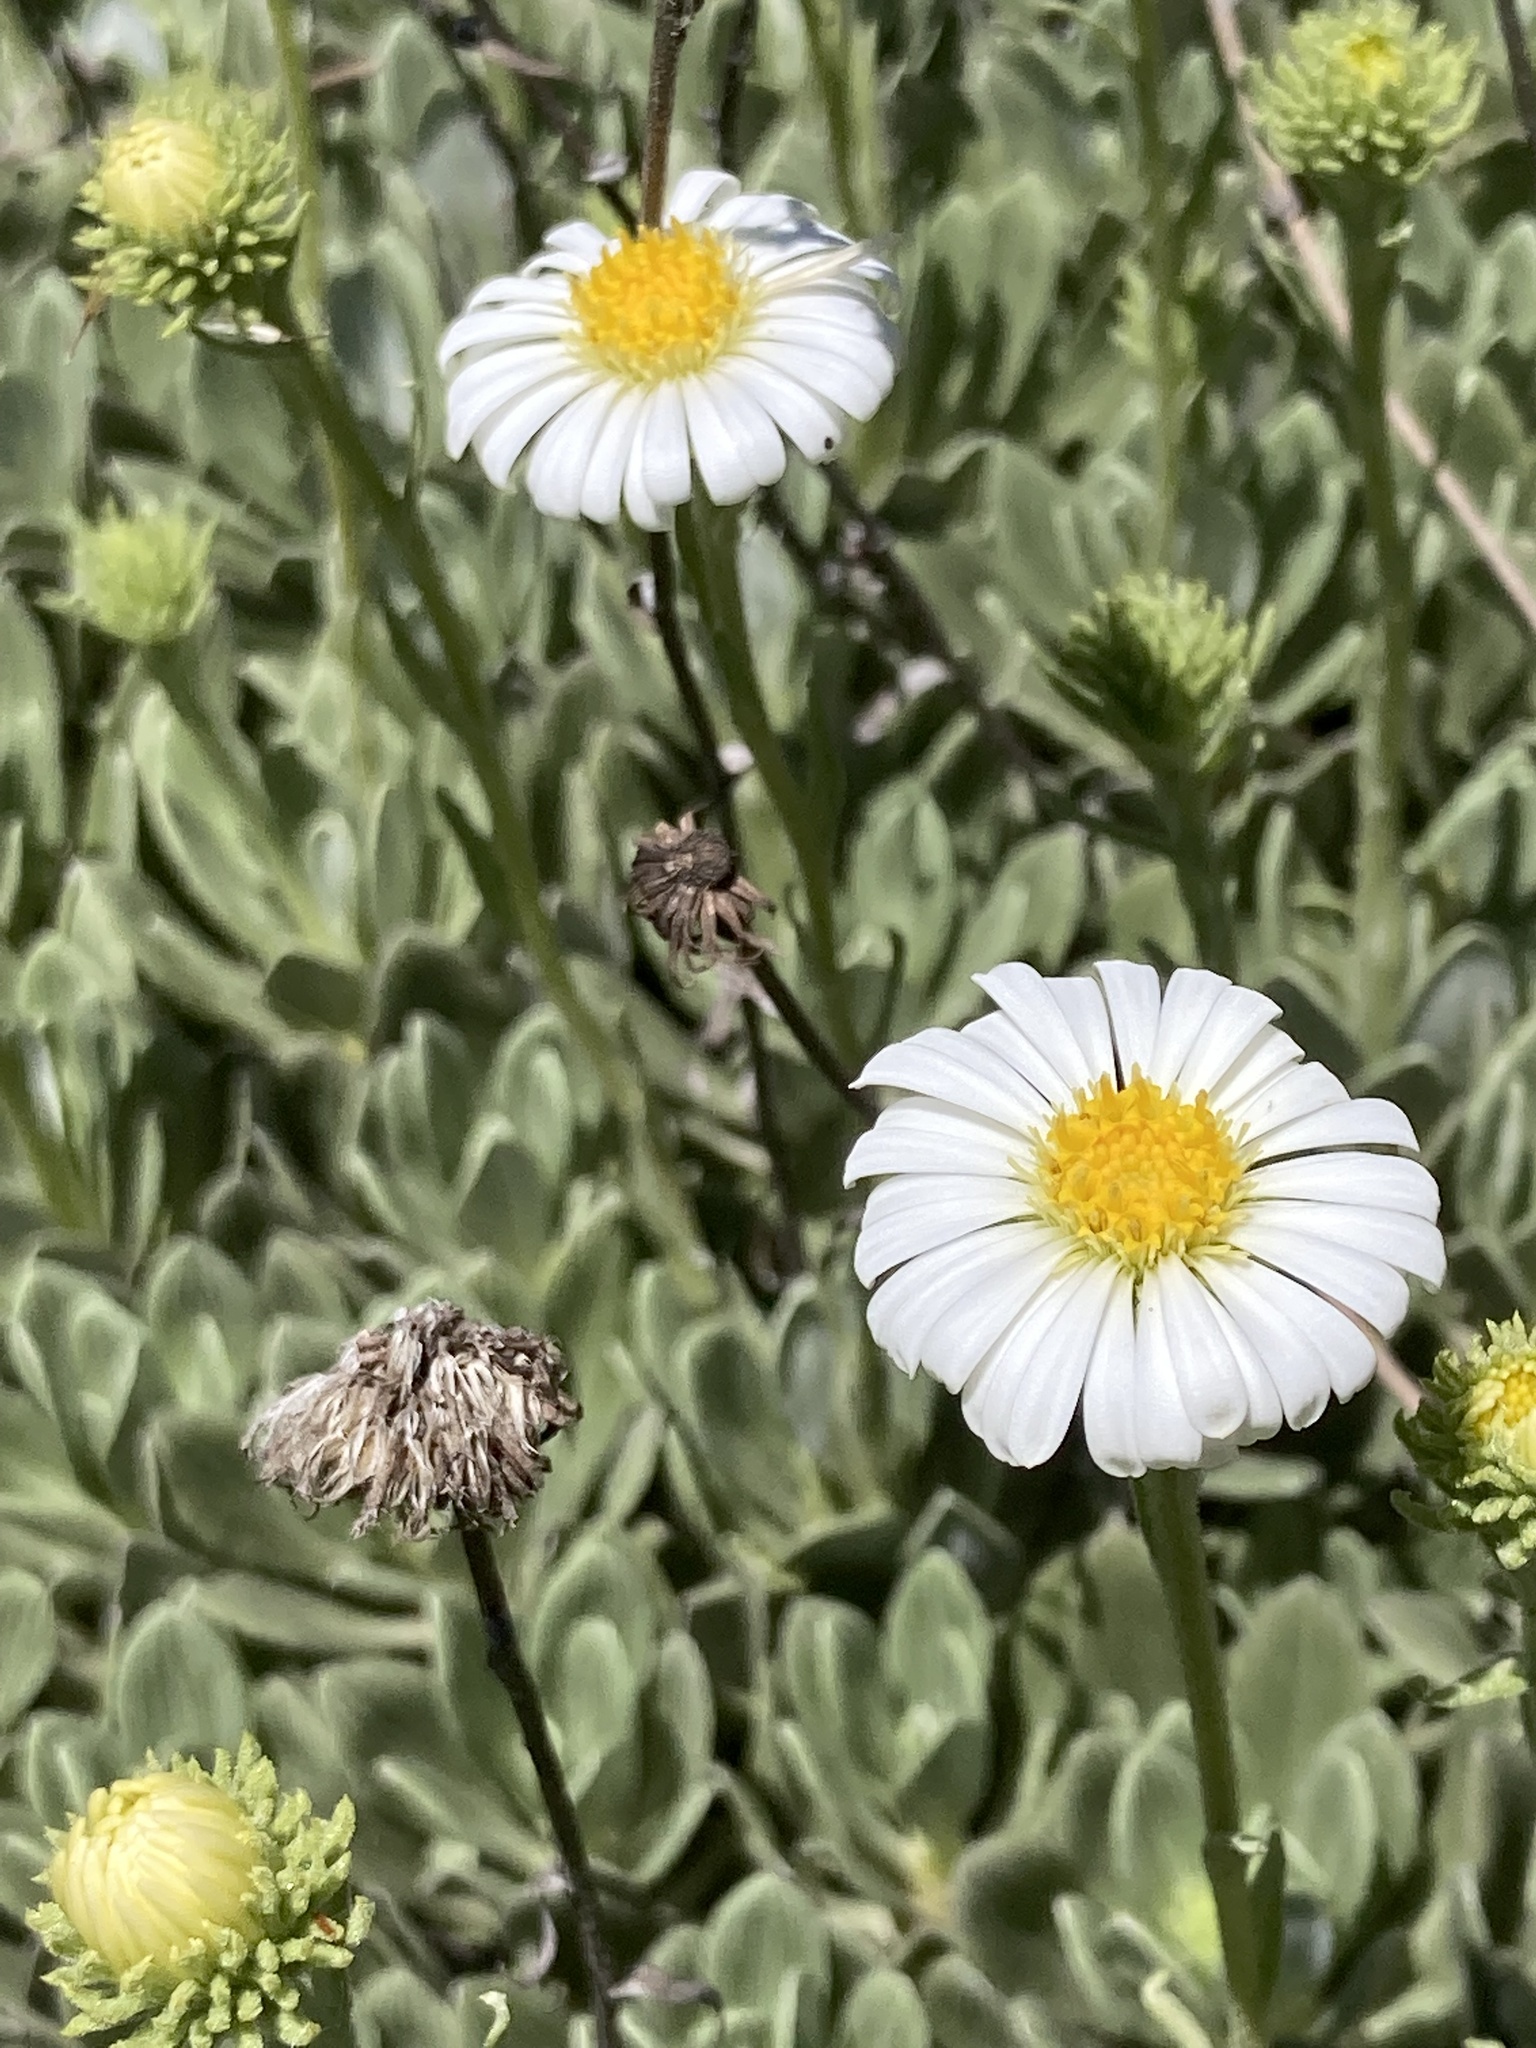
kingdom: Plantae
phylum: Tracheophyta
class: Magnoliopsida
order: Asterales
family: Asteraceae
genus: Celmisia
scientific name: Celmisia discolor
